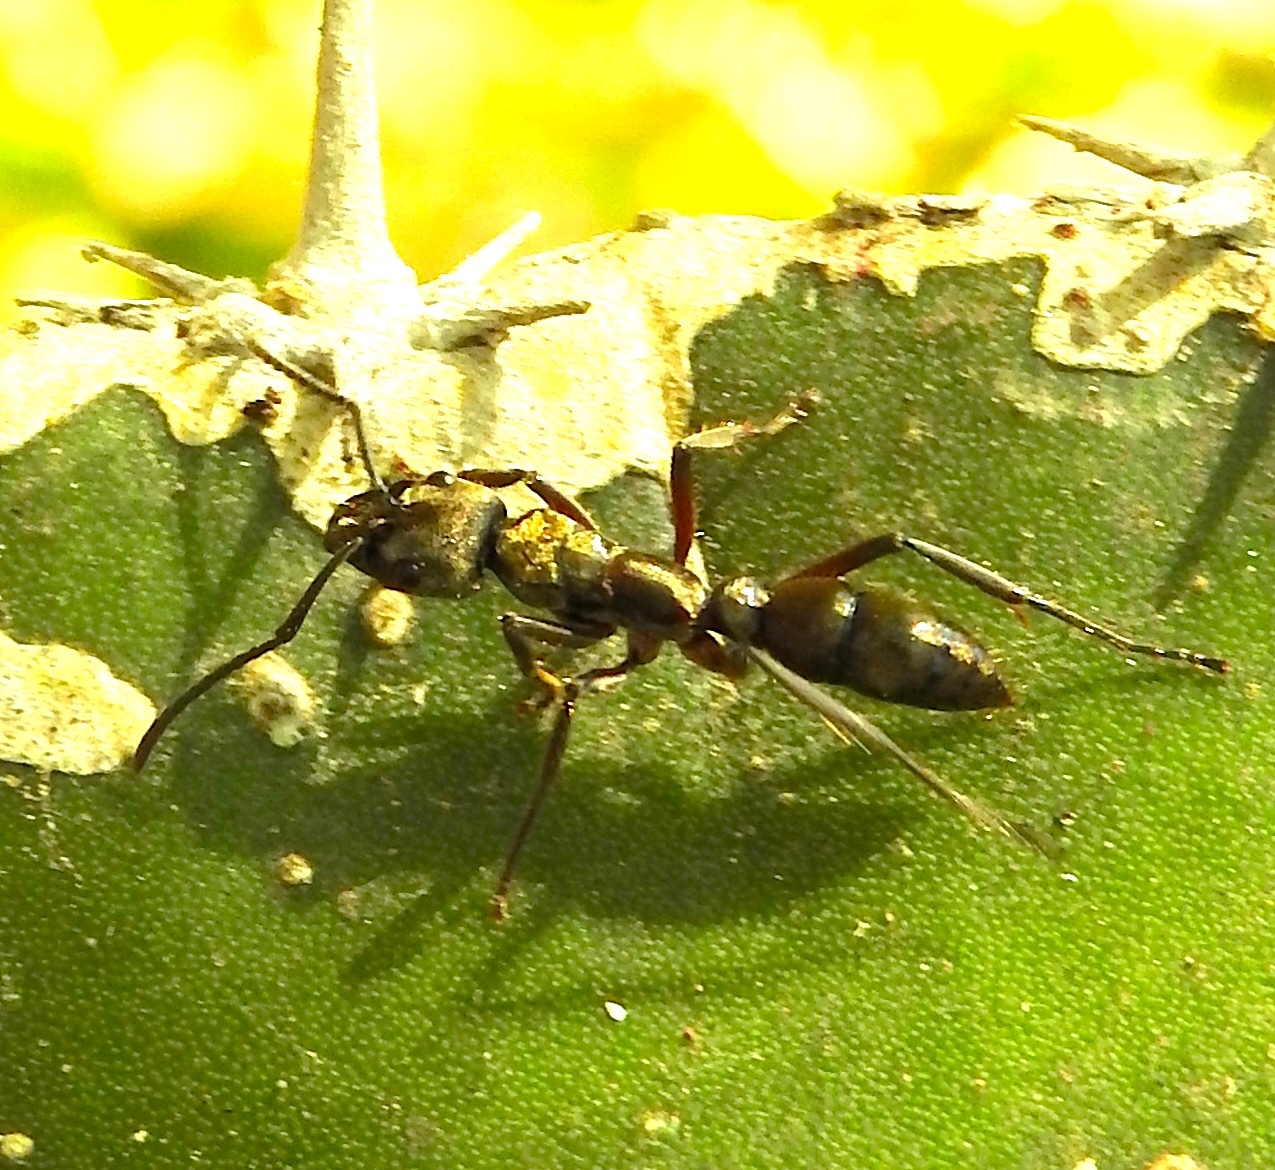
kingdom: Animalia
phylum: Arthropoda
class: Insecta
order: Hymenoptera
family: Formicidae
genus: Pachycondyla
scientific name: Pachycondyla villosa
